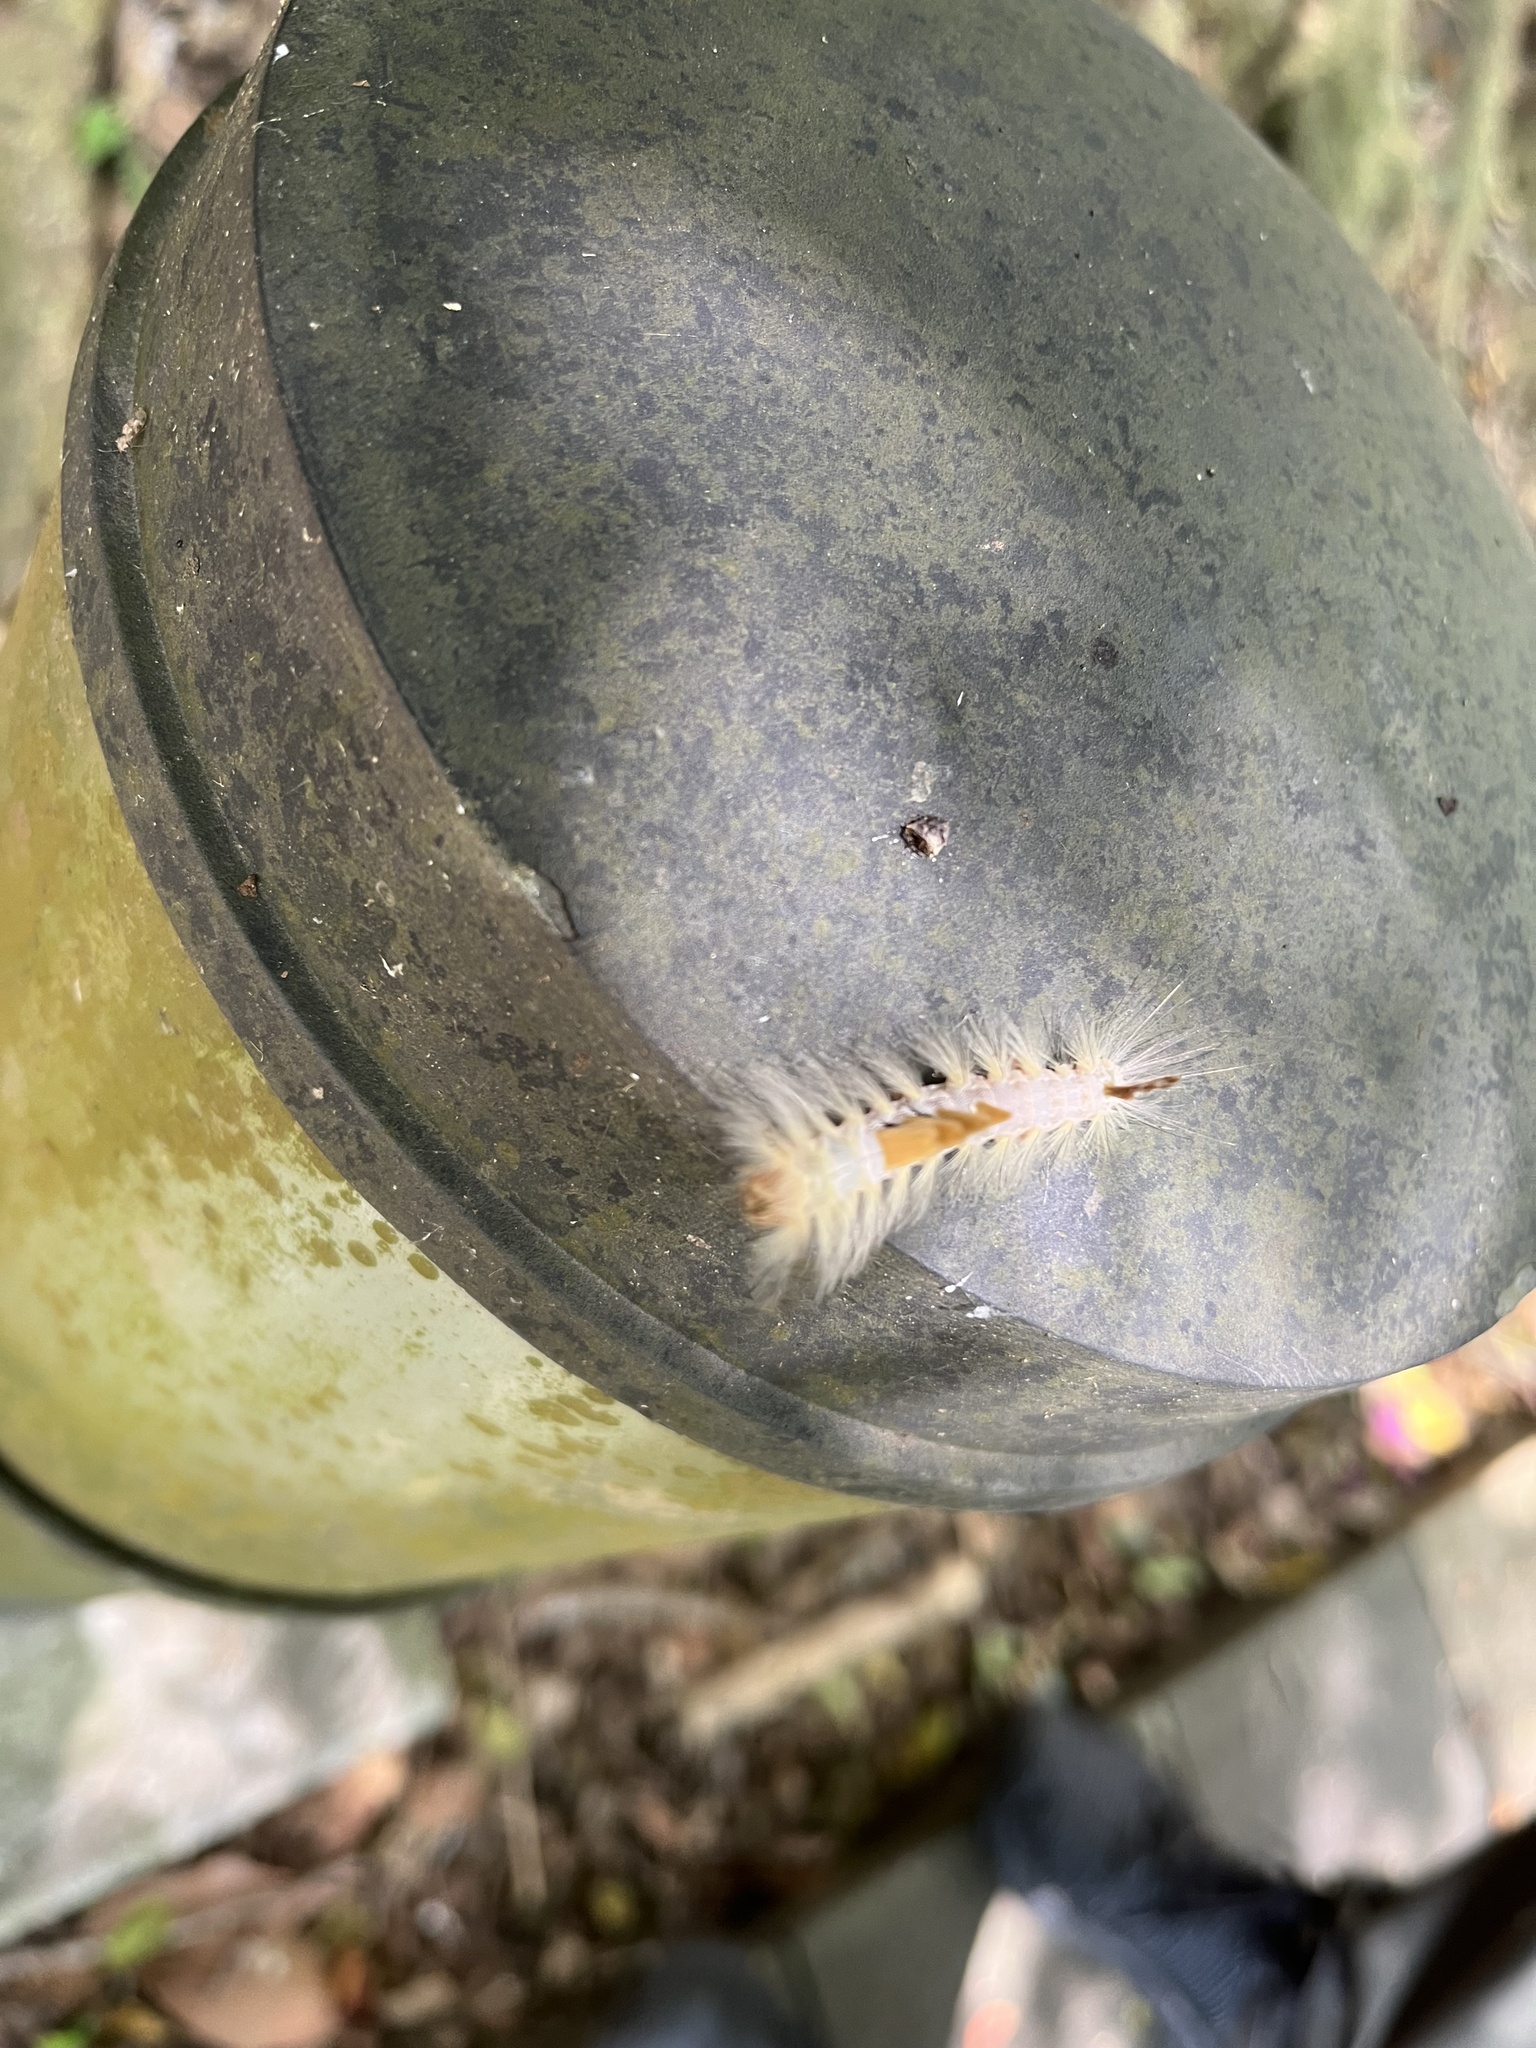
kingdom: Animalia
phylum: Arthropoda
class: Insecta
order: Lepidoptera
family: Erebidae
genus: Olene
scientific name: Olene dudgeoni
